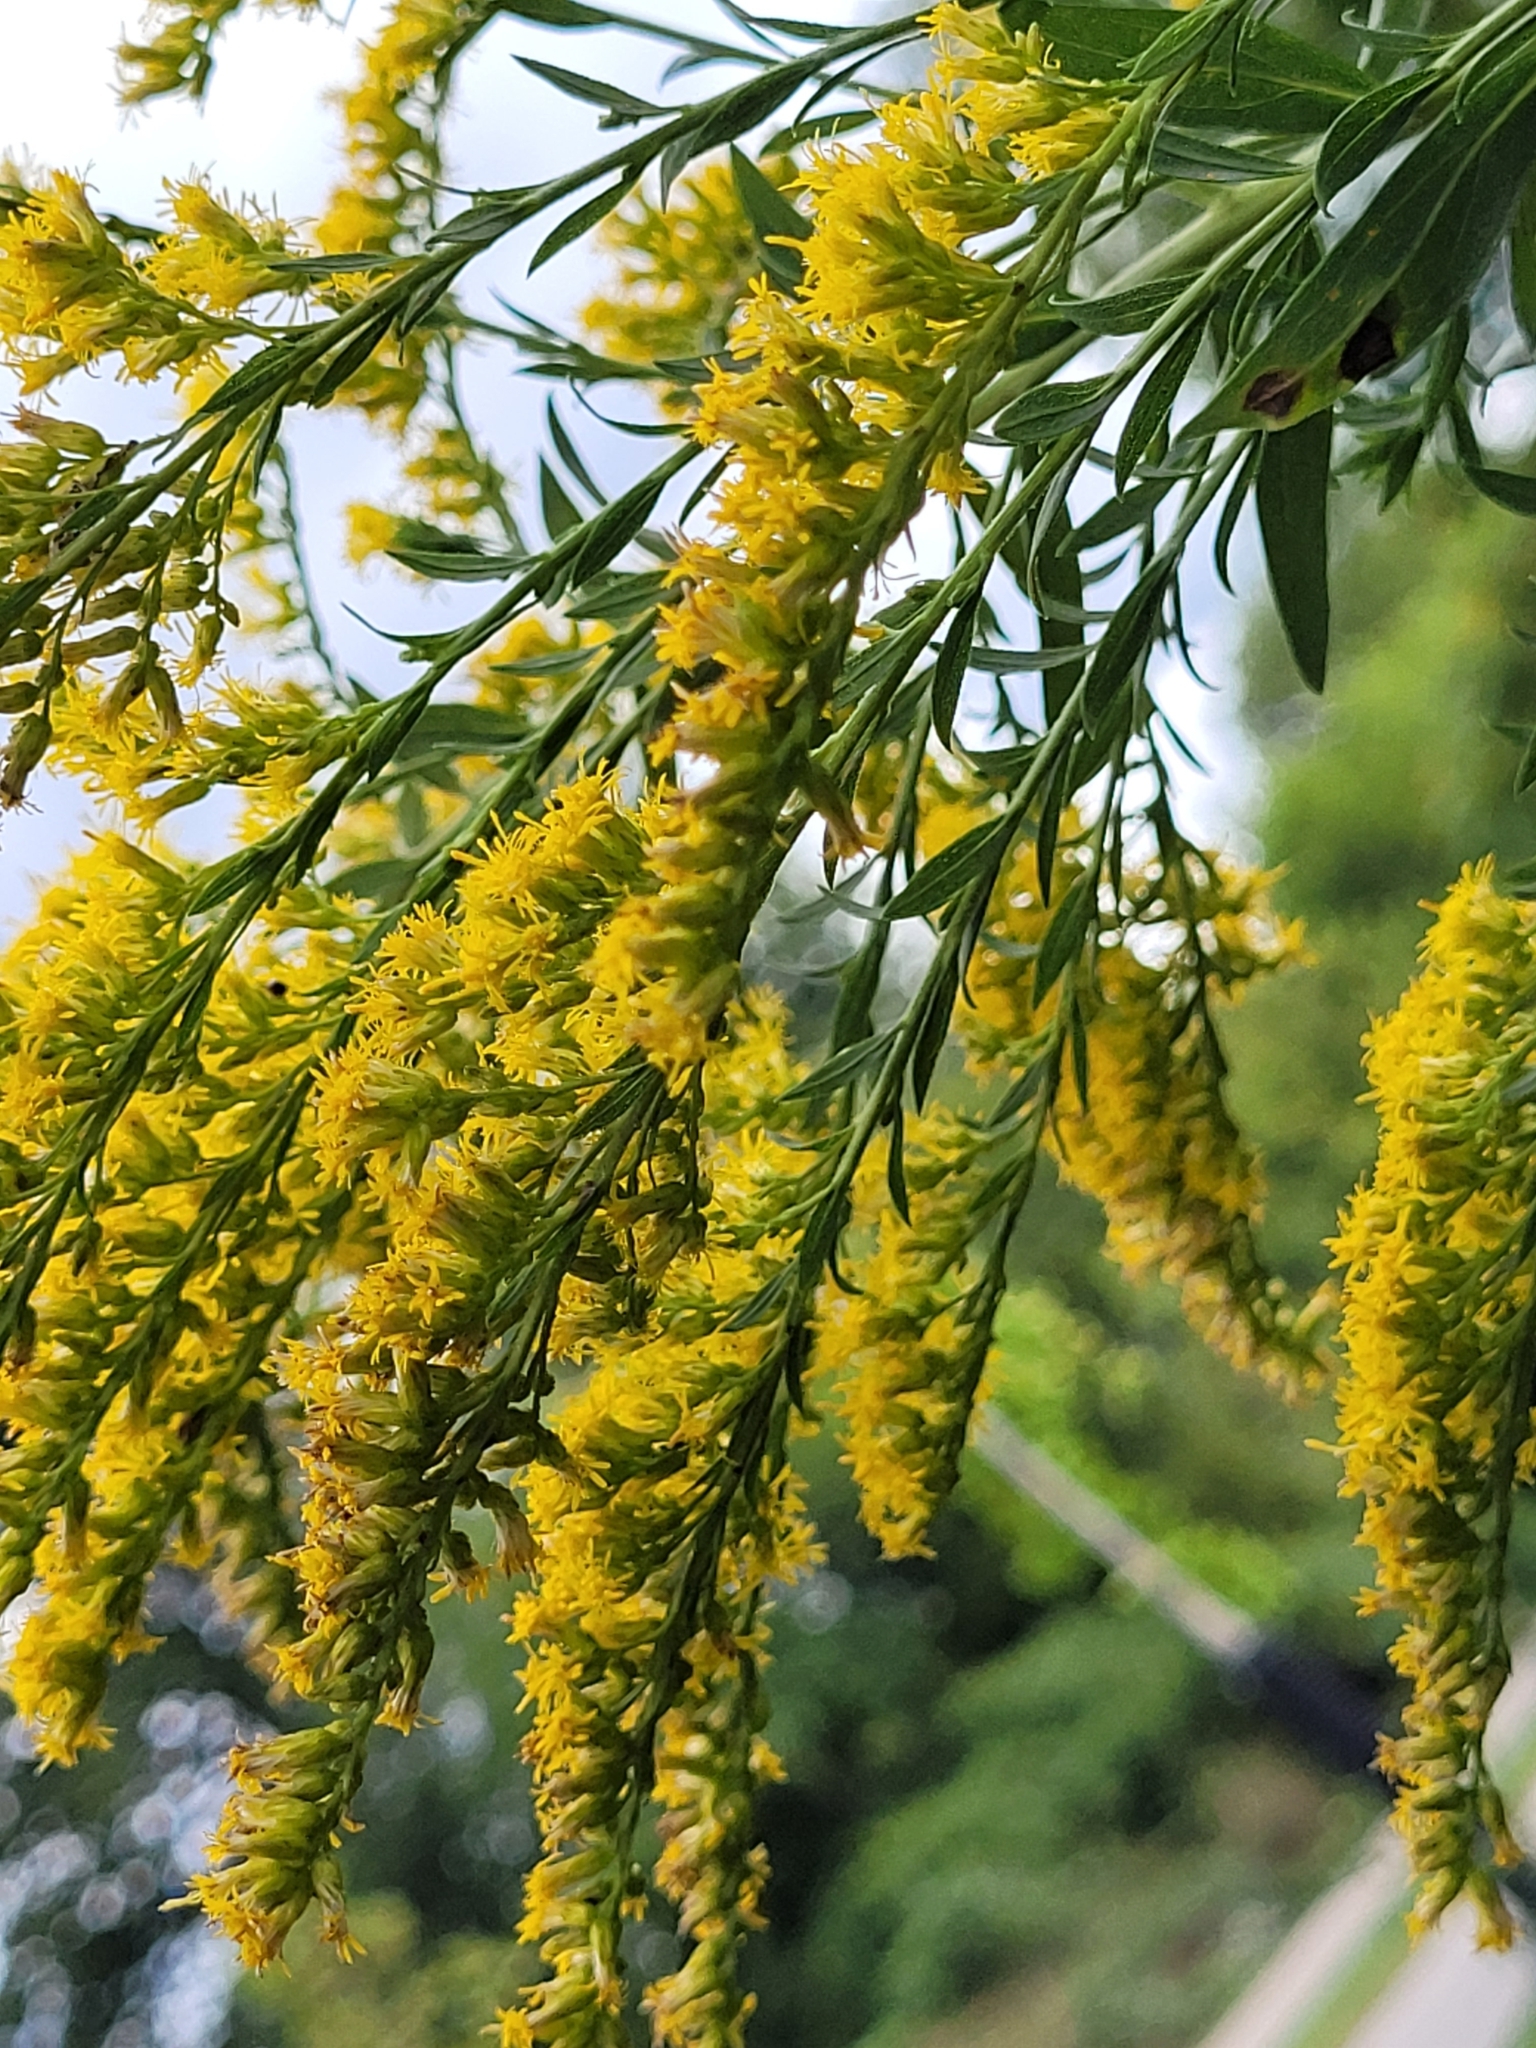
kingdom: Plantae
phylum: Tracheophyta
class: Magnoliopsida
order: Asterales
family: Asteraceae
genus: Solidago
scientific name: Solidago altissima
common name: Late goldenrod
